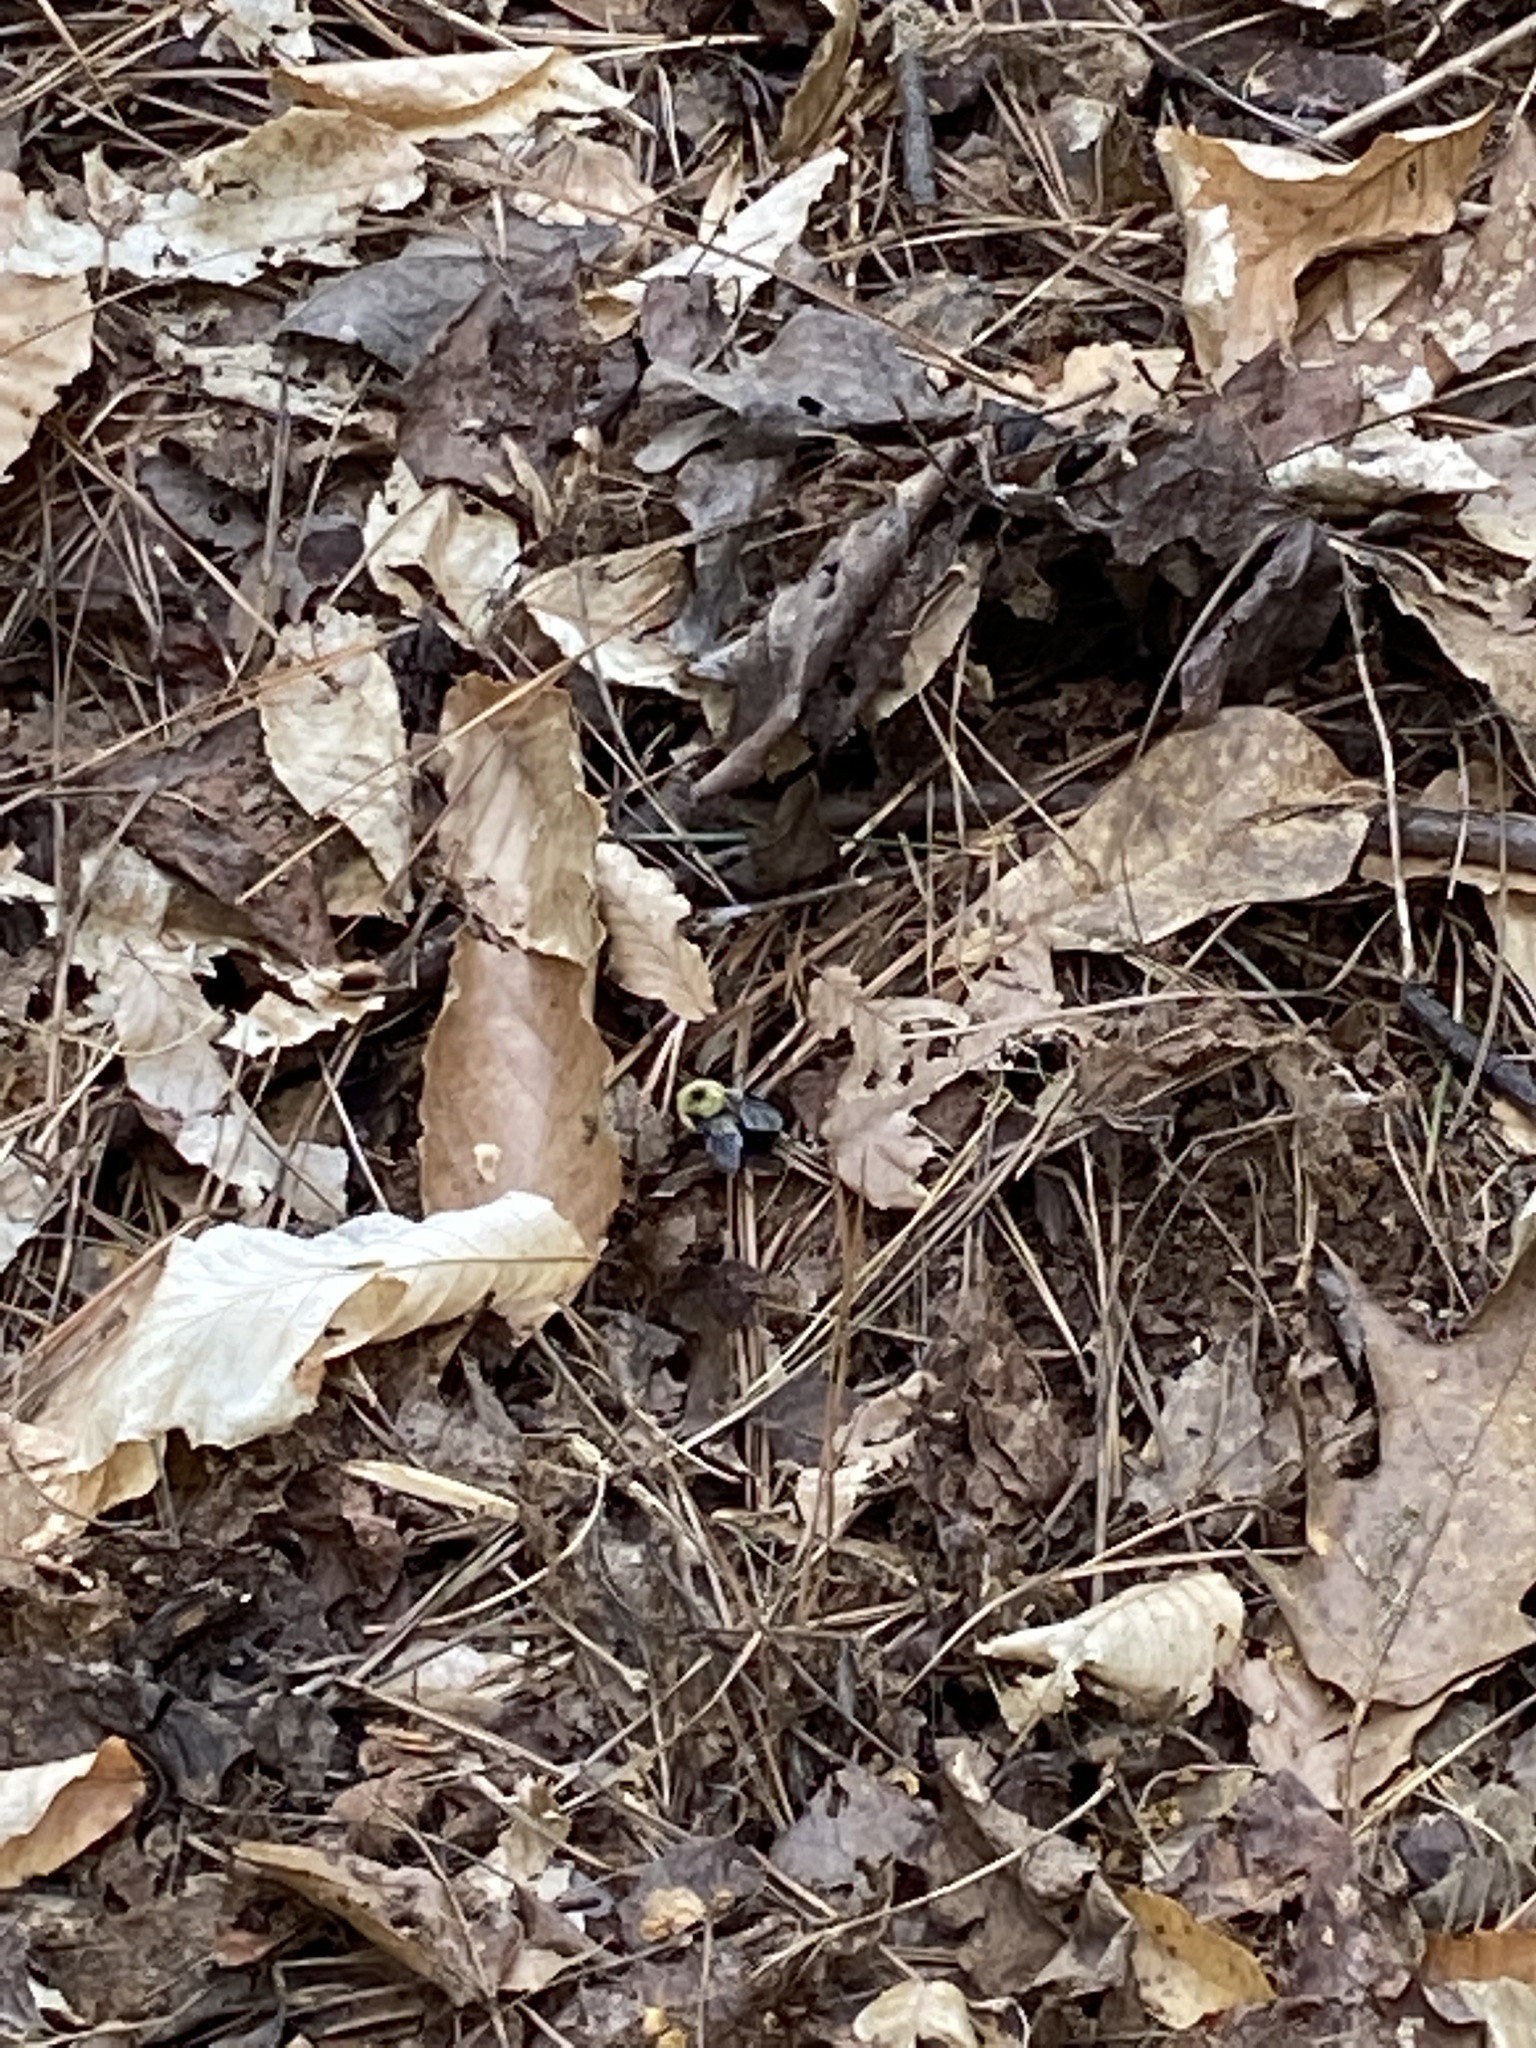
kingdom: Animalia
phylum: Arthropoda
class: Insecta
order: Hymenoptera
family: Apidae
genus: Bombus
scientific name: Bombus bimaculatus
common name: Two-spotted bumble bee
